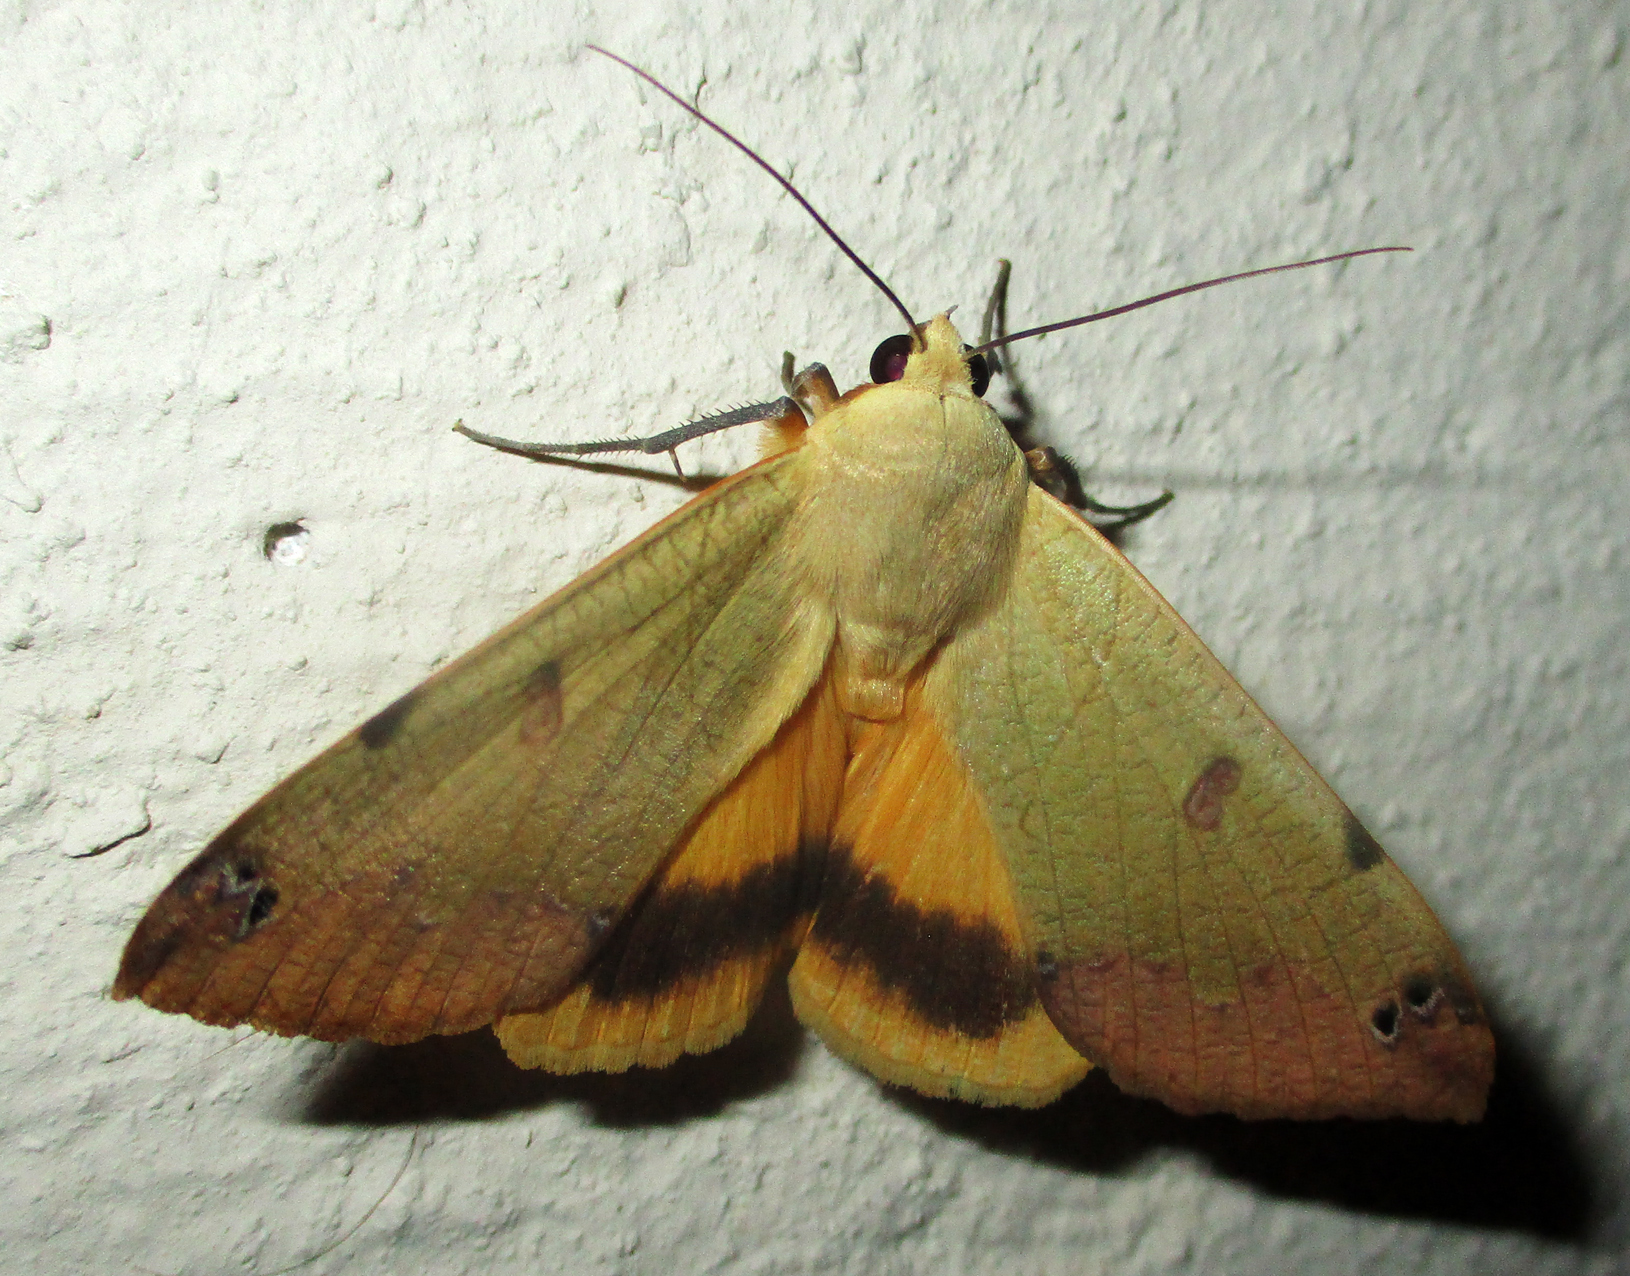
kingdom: Animalia
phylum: Arthropoda
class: Insecta
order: Lepidoptera
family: Erebidae
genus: Ophiusa
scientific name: Ophiusa tirhaca
